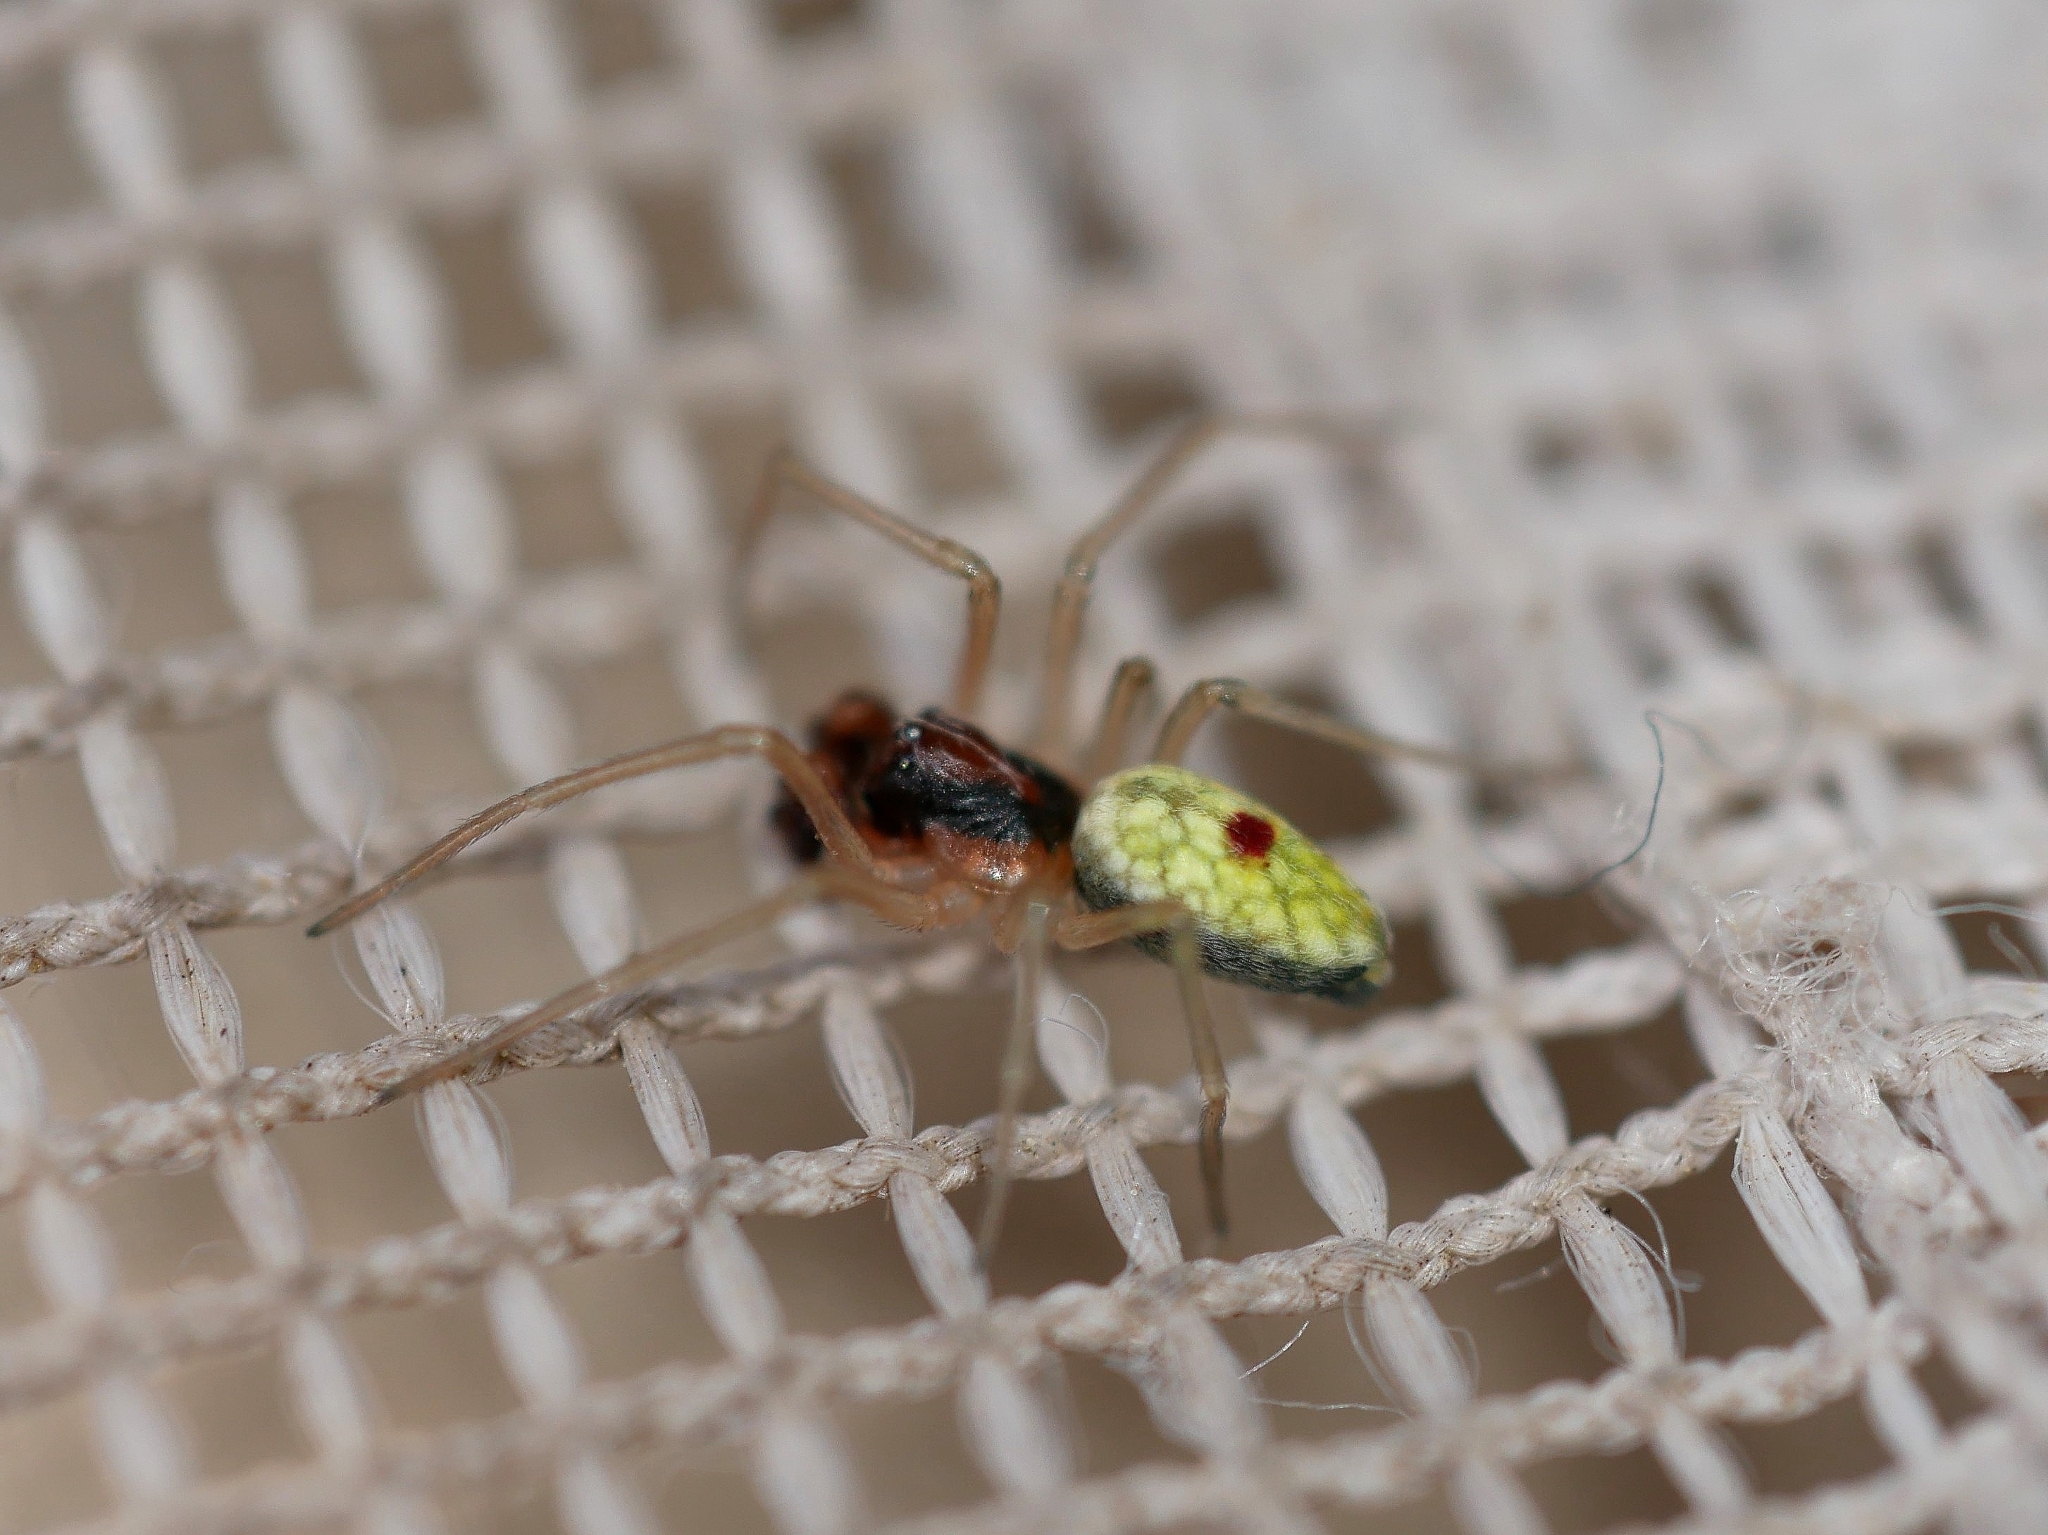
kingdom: Animalia
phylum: Arthropoda
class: Arachnida
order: Araneae
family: Dictynidae
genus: Nigma
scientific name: Nigma linsdalei
